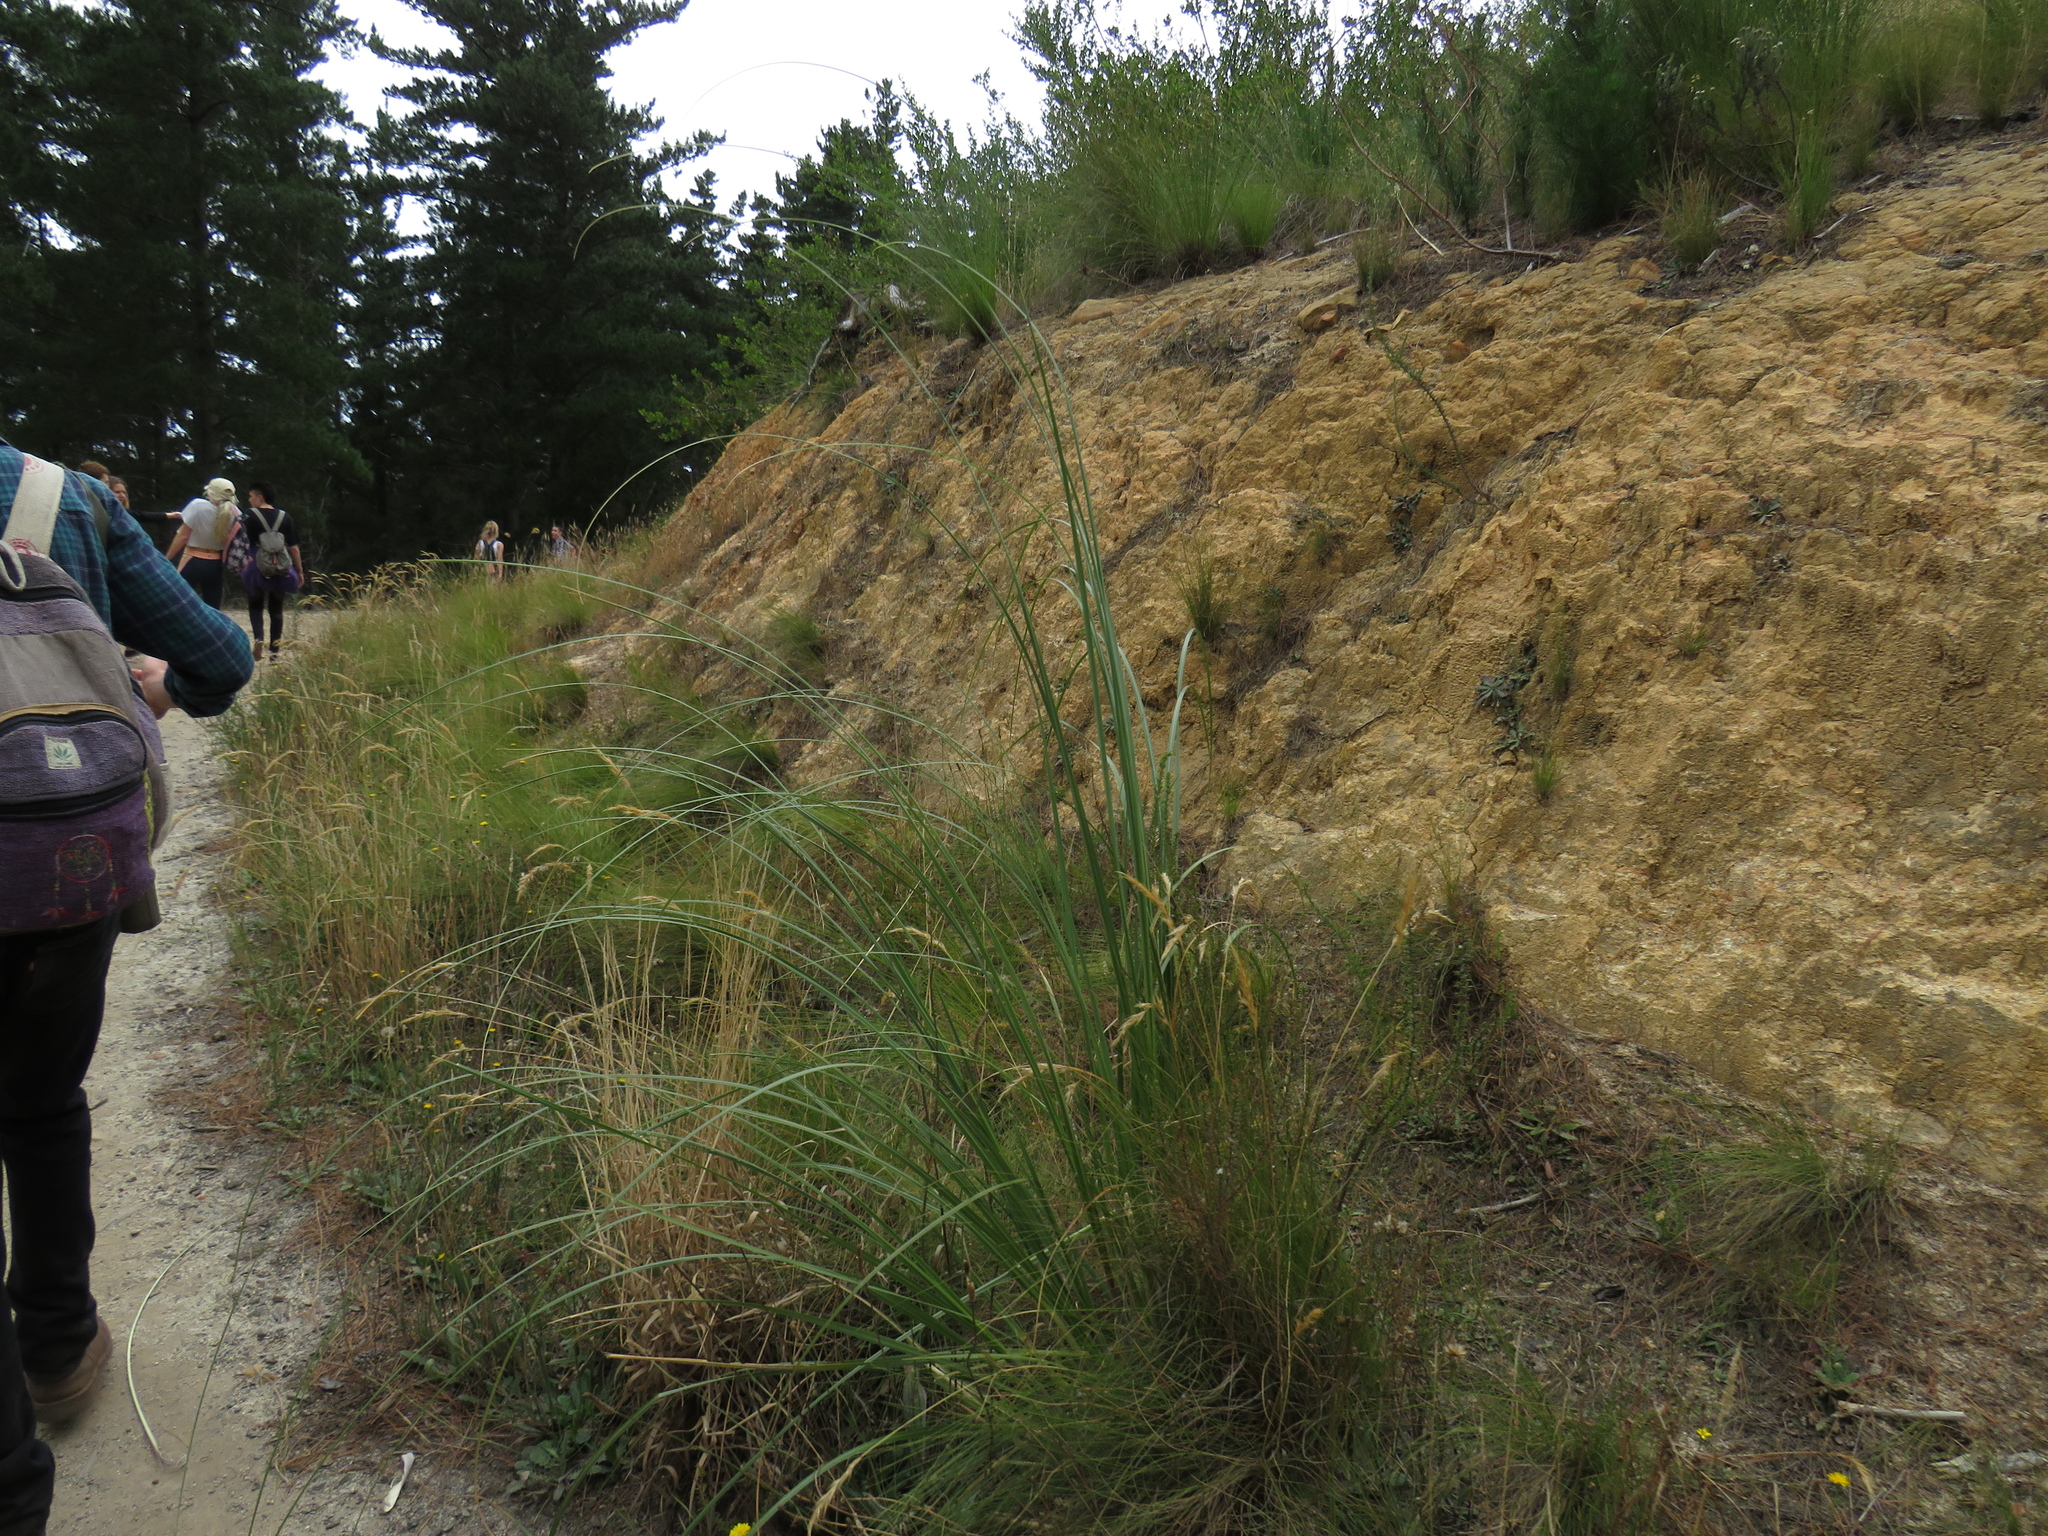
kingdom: Plantae
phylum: Tracheophyta
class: Liliopsida
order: Poales
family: Poaceae
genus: Cortaderia
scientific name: Cortaderia selloana
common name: Uruguayan pampas grass
